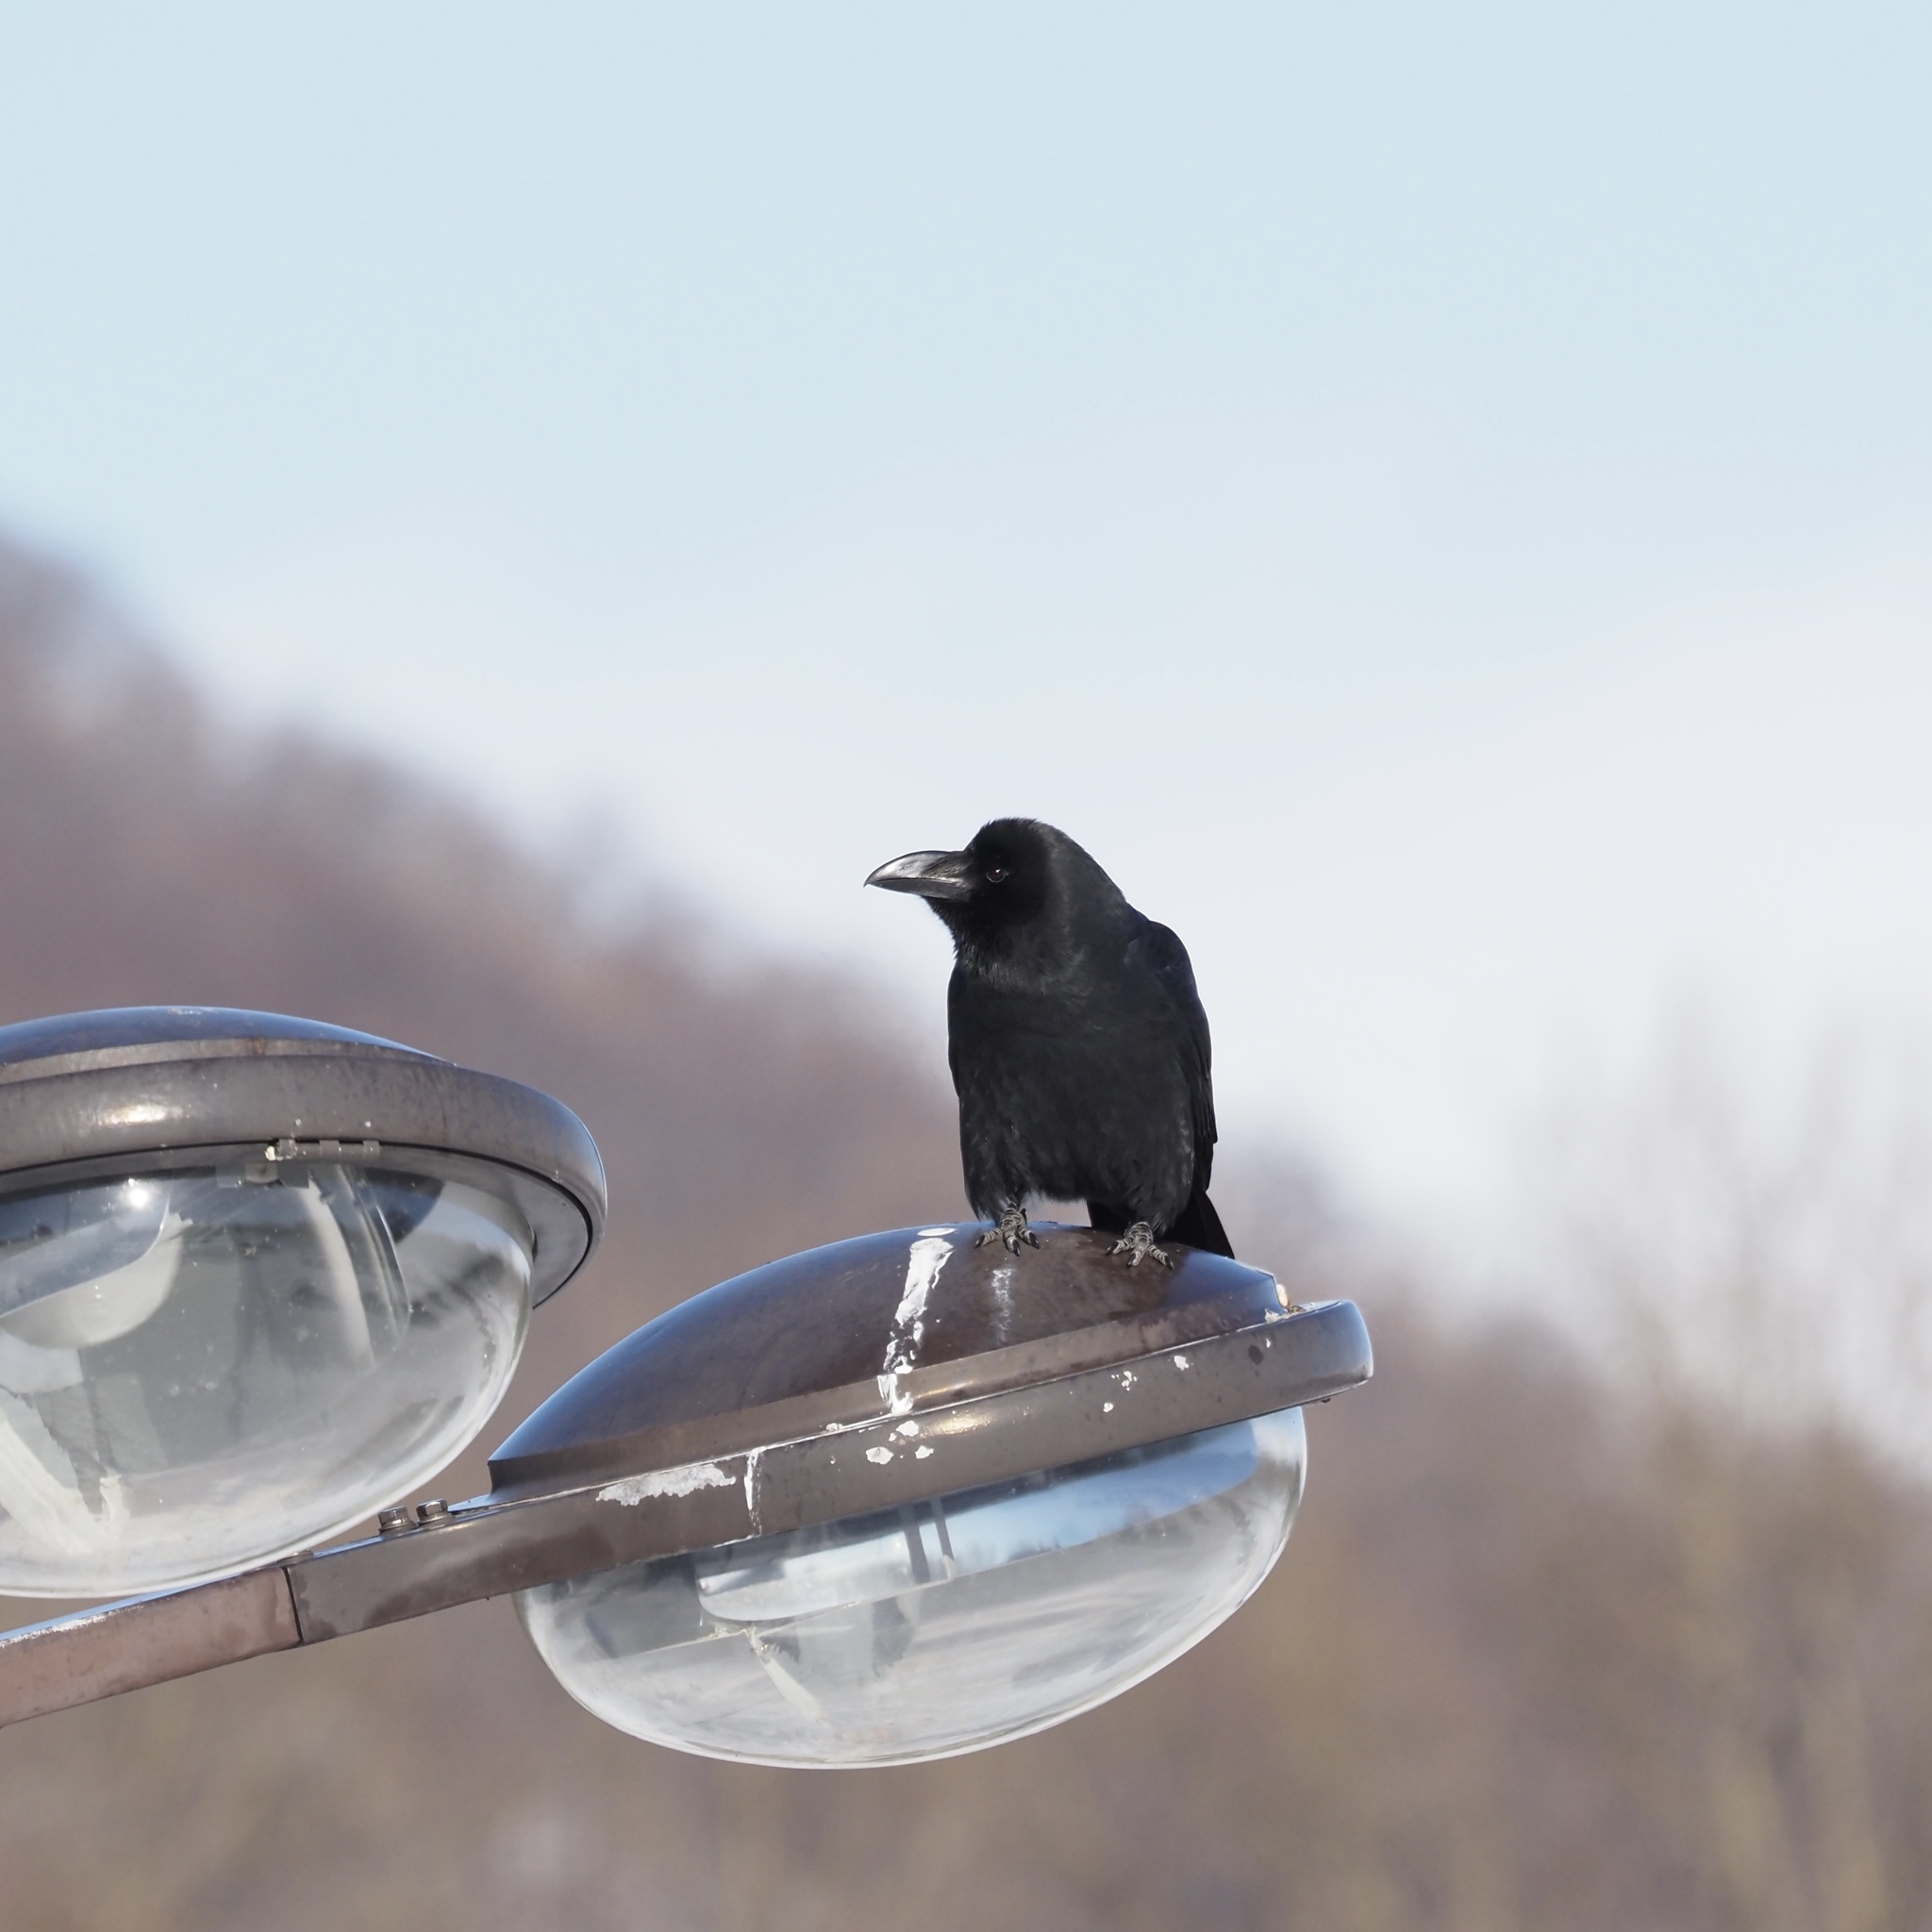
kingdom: Animalia
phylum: Chordata
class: Aves
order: Passeriformes
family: Corvidae
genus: Corvus
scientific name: Corvus macrorhynchos
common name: Large-billed crow
